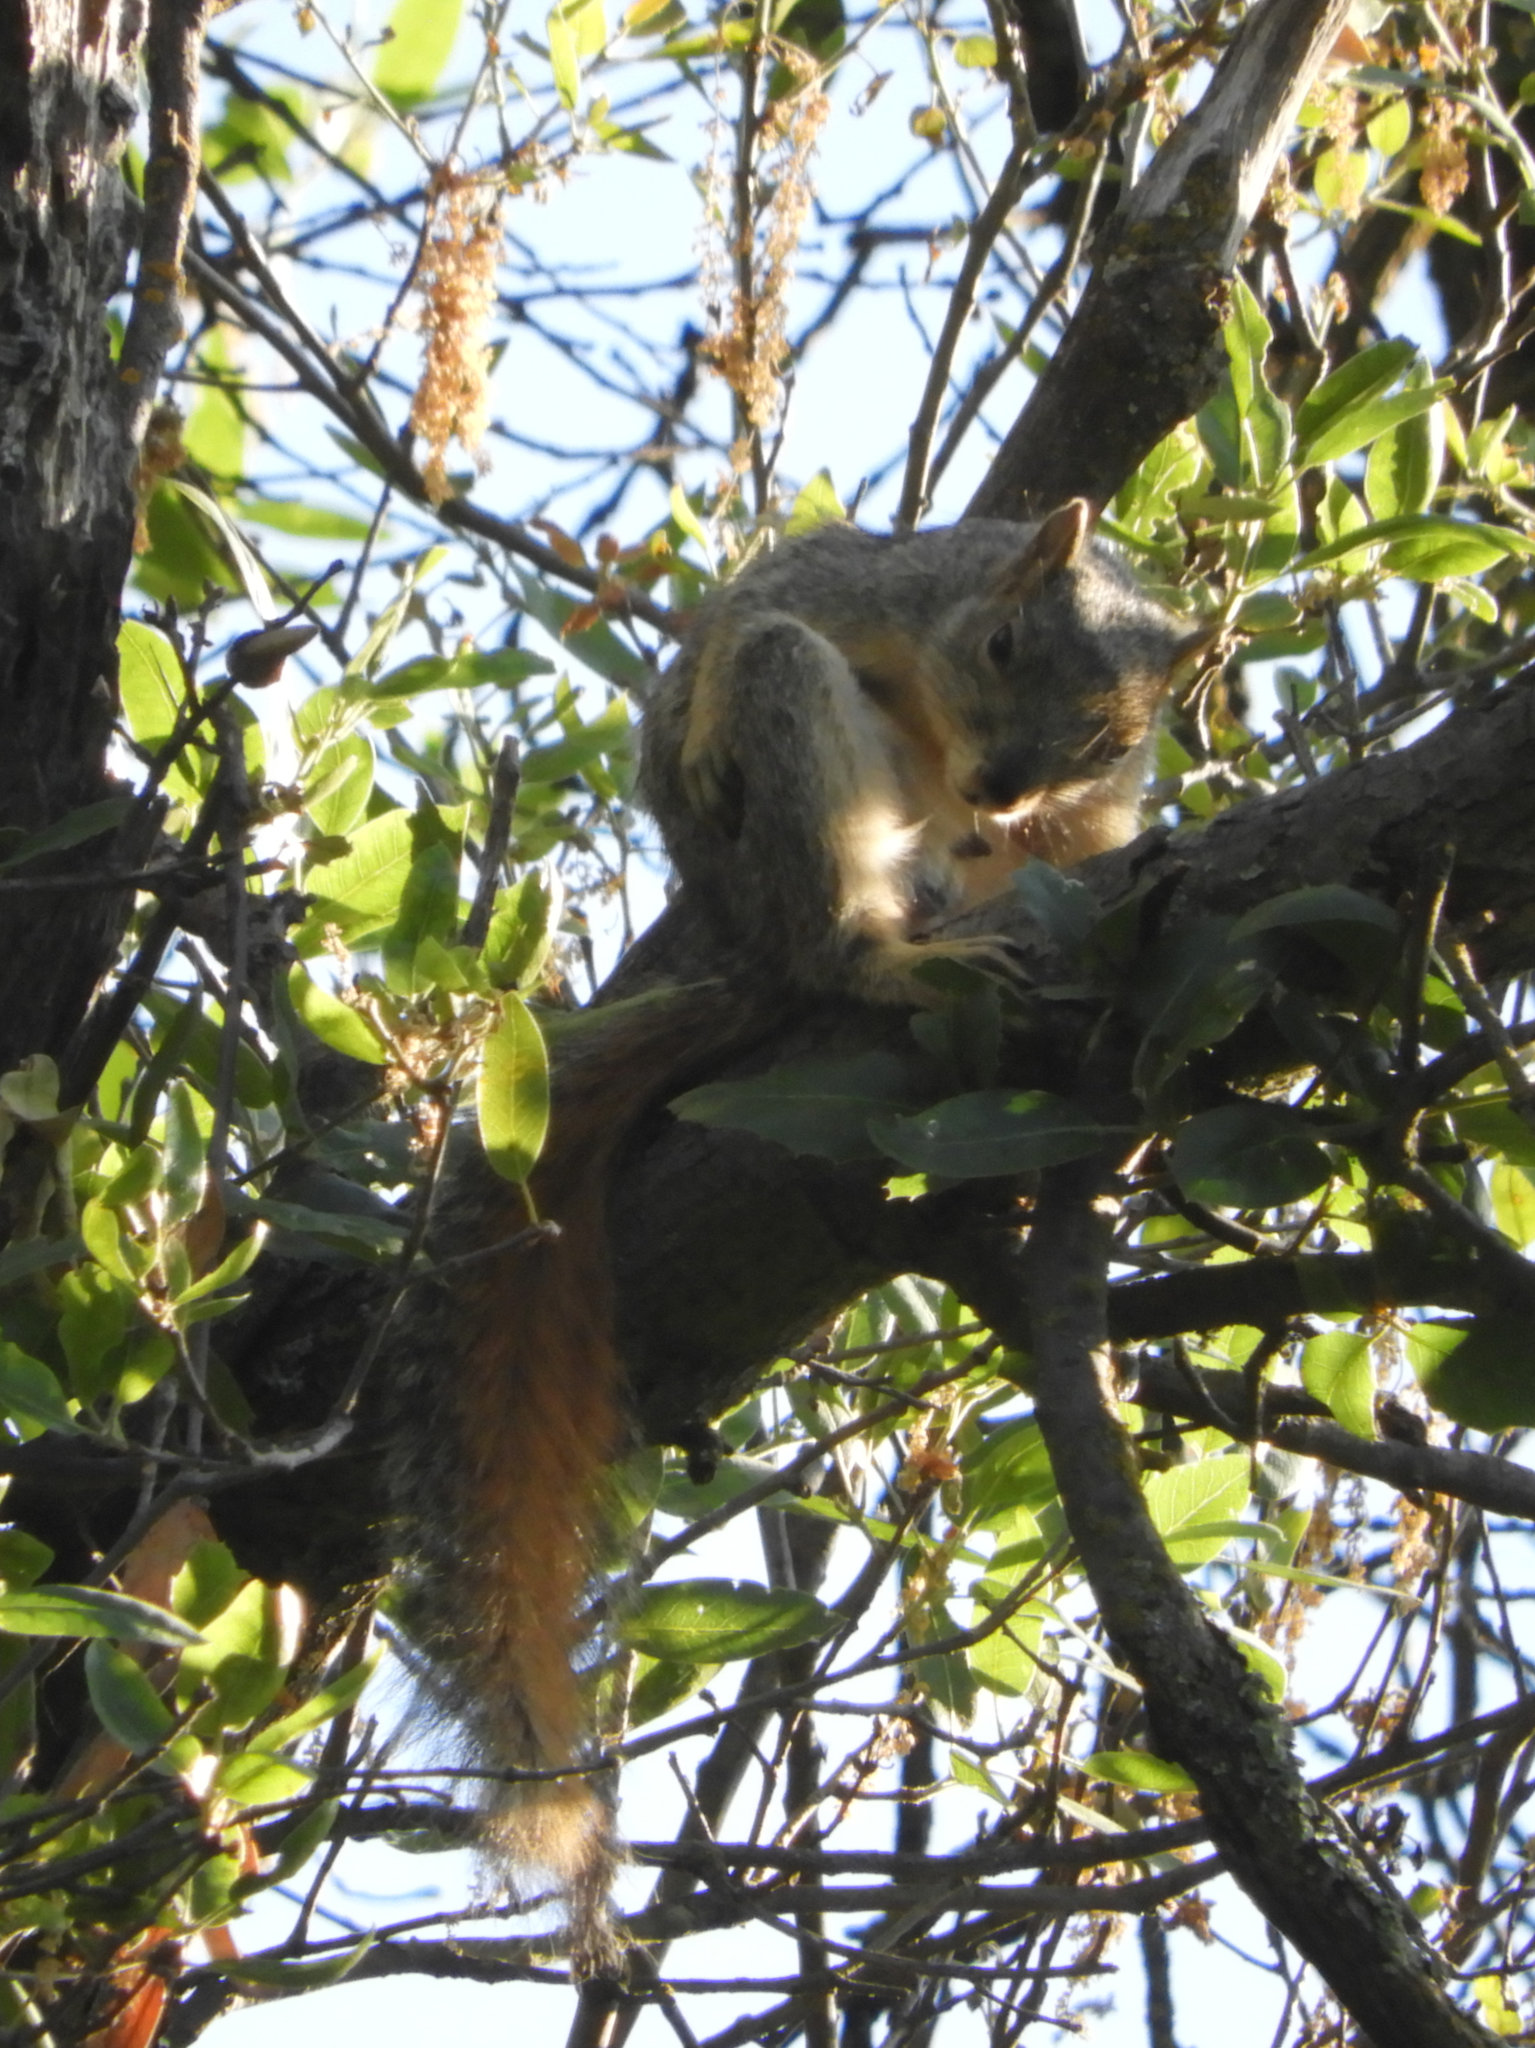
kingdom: Animalia
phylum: Chordata
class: Mammalia
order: Rodentia
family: Sciuridae
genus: Sciurus
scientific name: Sciurus niger
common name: Fox squirrel
